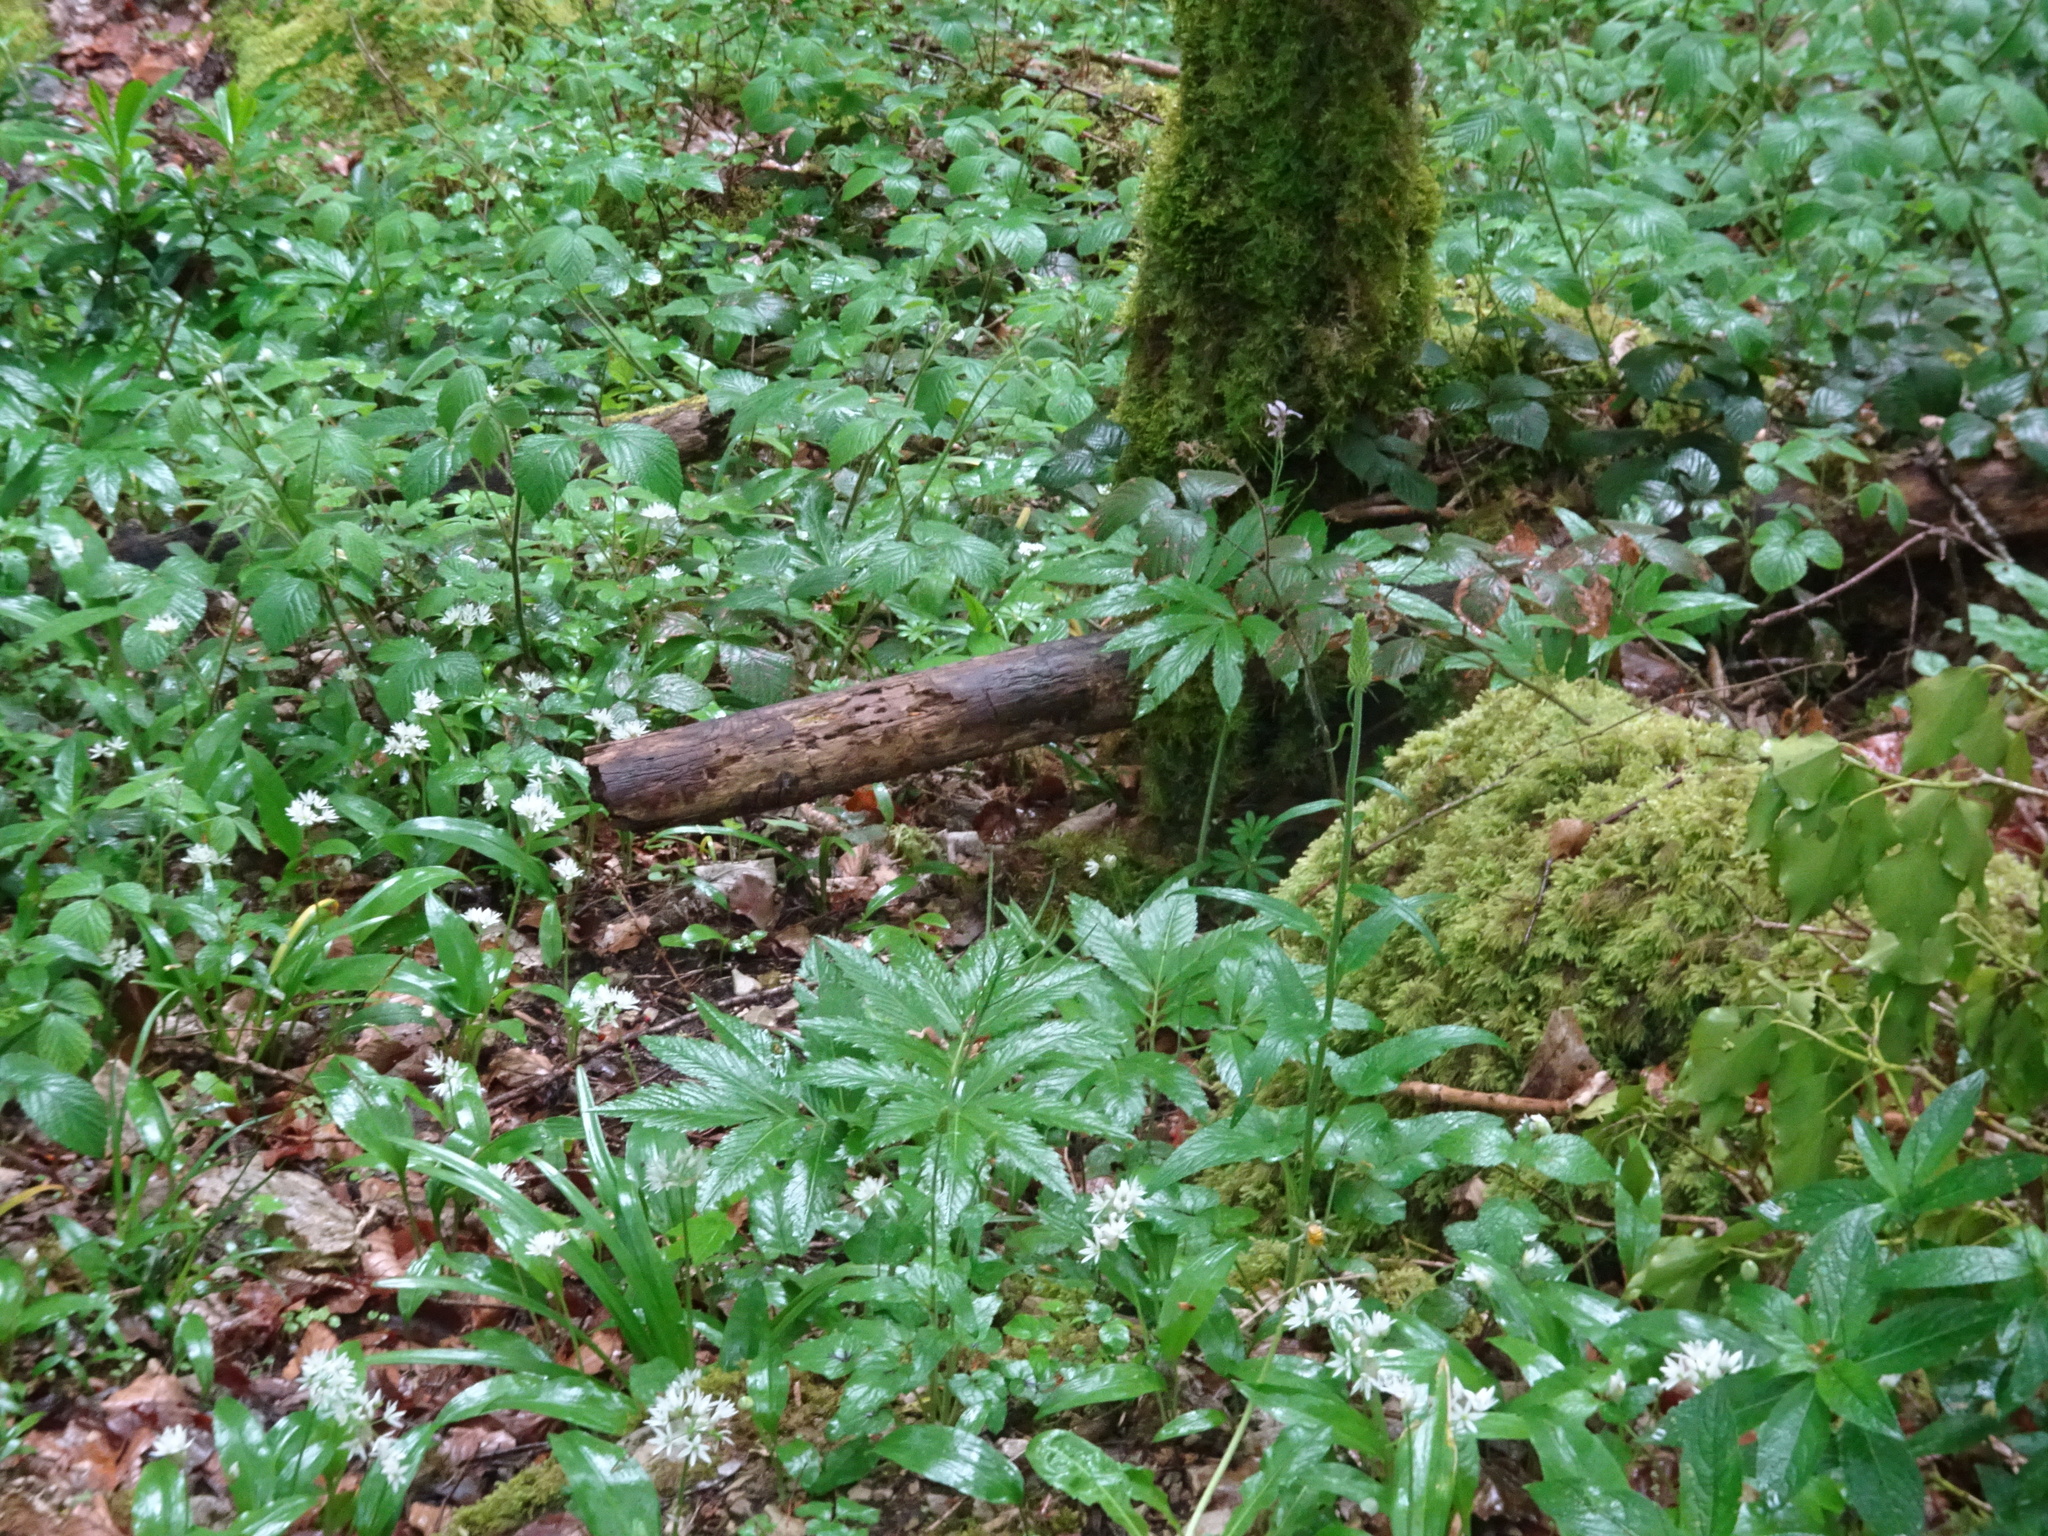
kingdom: Plantae
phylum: Tracheophyta
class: Magnoliopsida
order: Brassicales
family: Brassicaceae
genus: Cardamine
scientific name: Cardamine heptaphylla
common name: Pinnate coralroot
